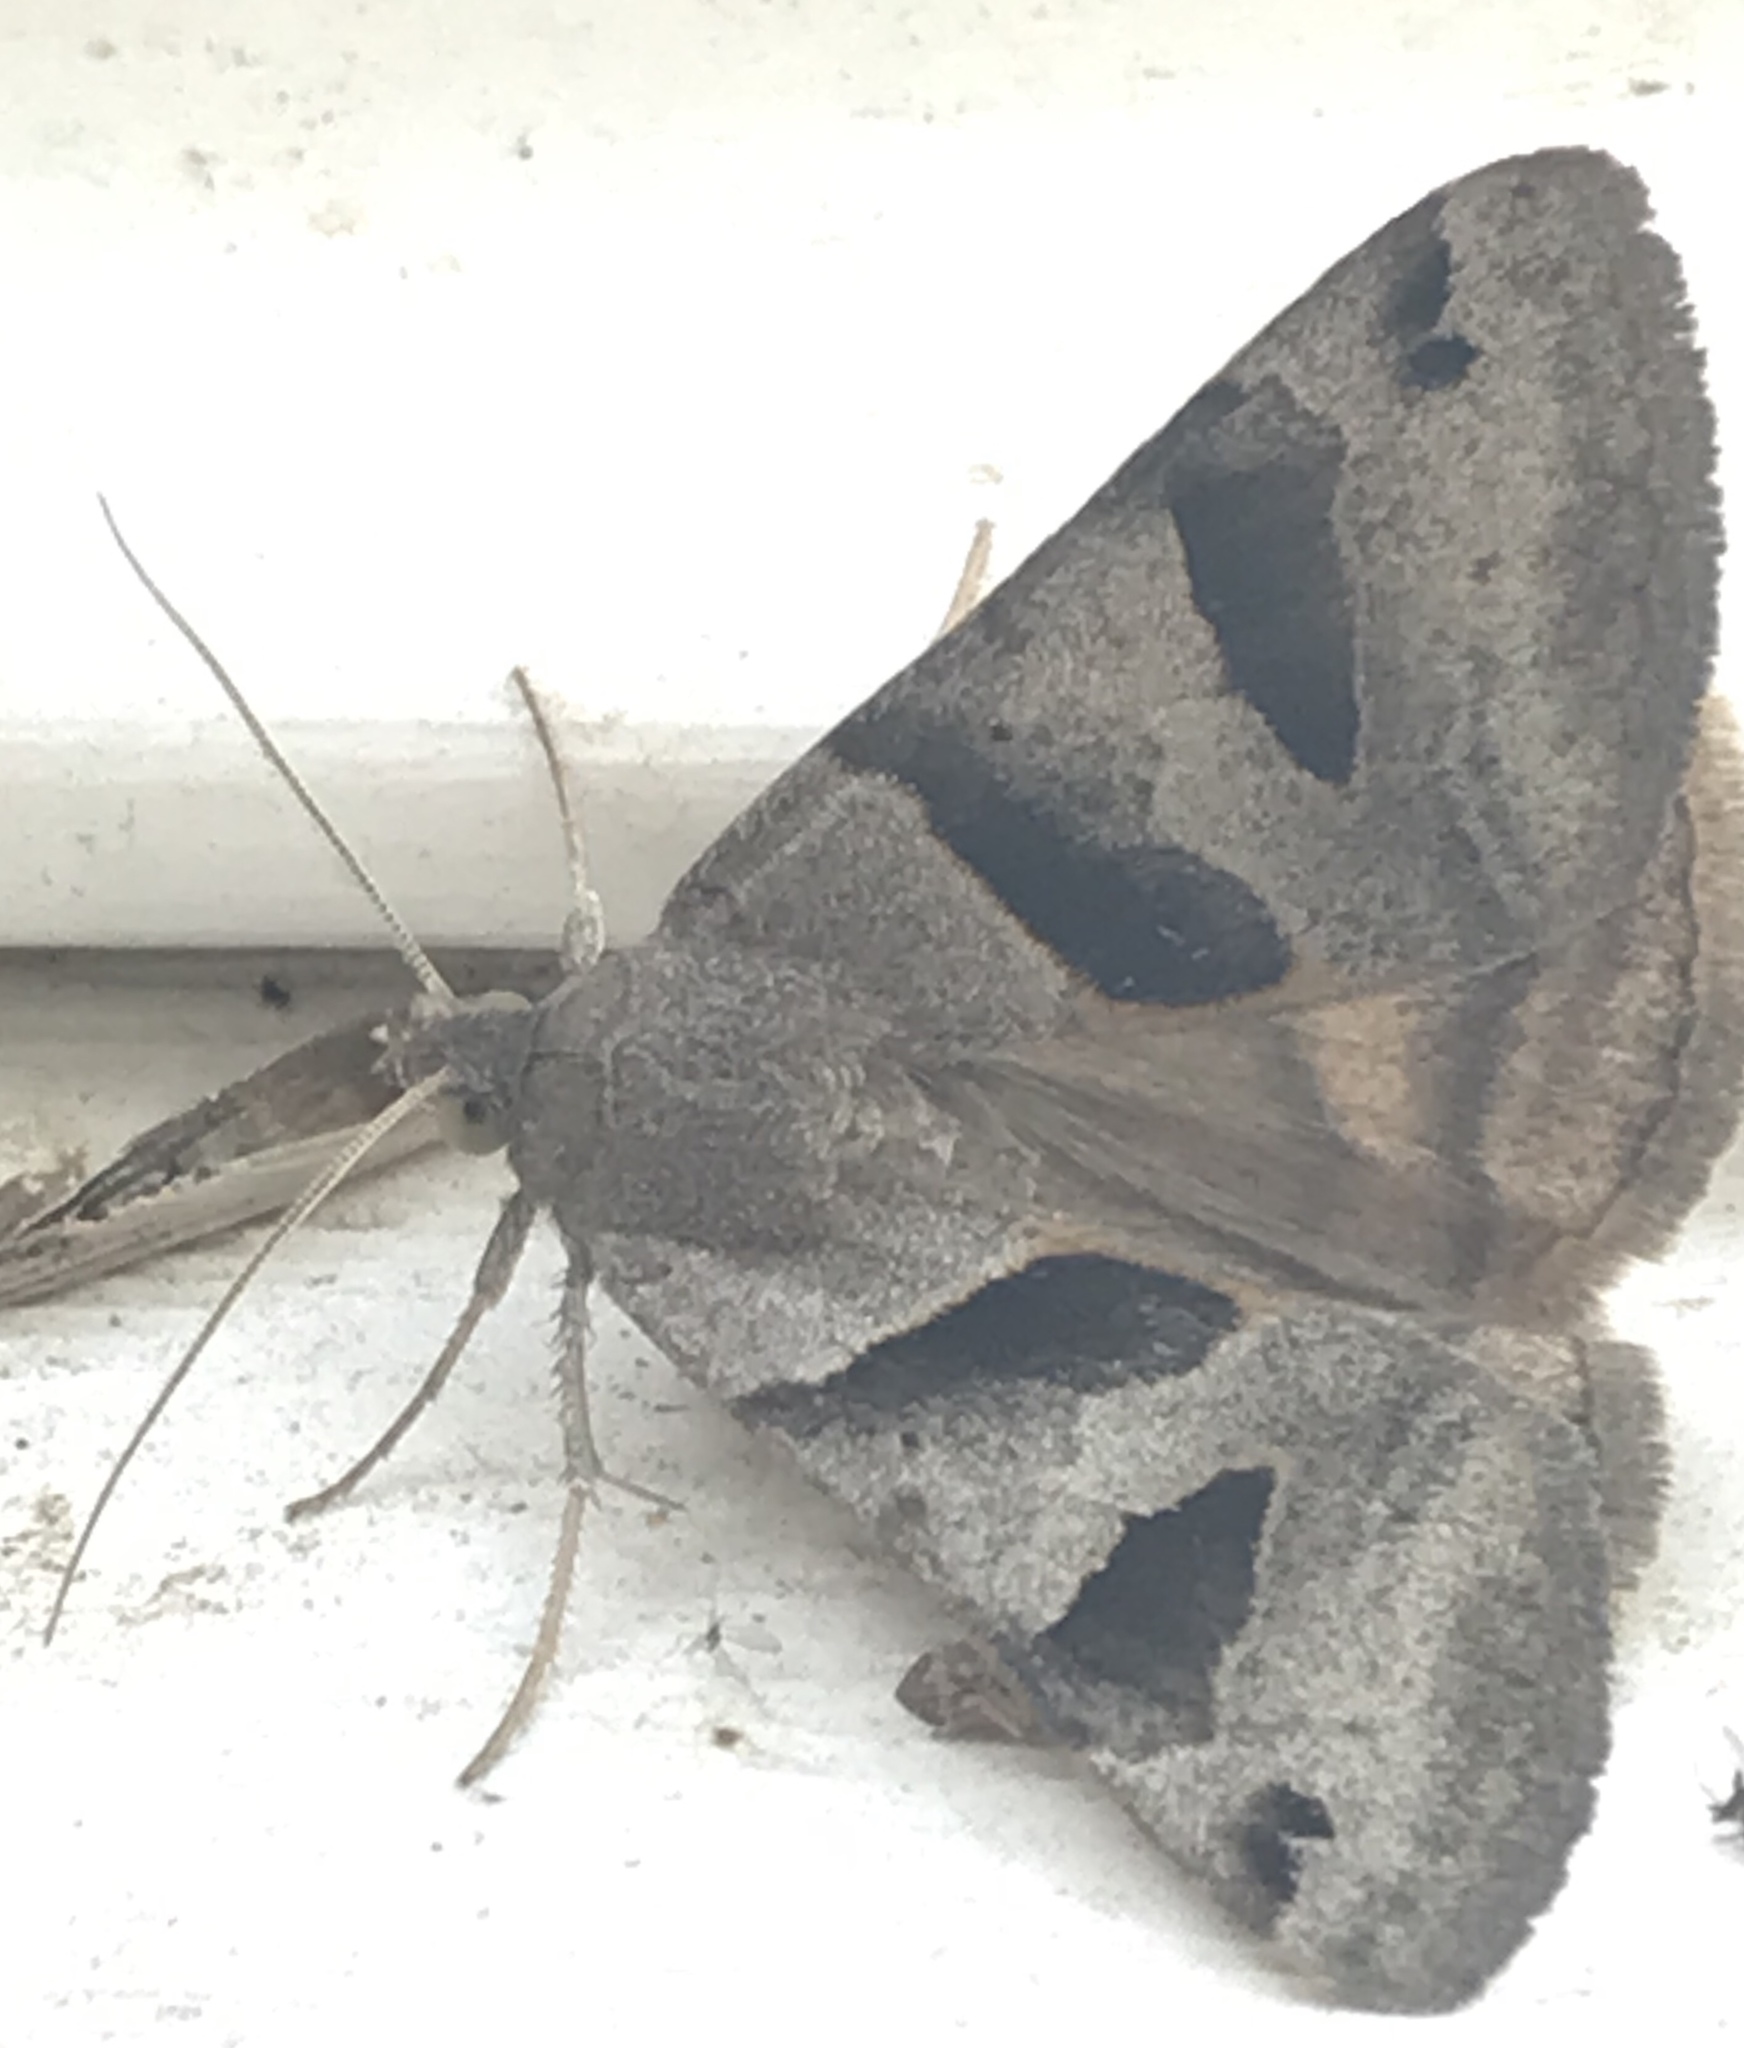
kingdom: Animalia
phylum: Arthropoda
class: Insecta
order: Lepidoptera
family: Erebidae
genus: Caenurgina
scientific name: Caenurgina erechtea
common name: Forage looper moth
